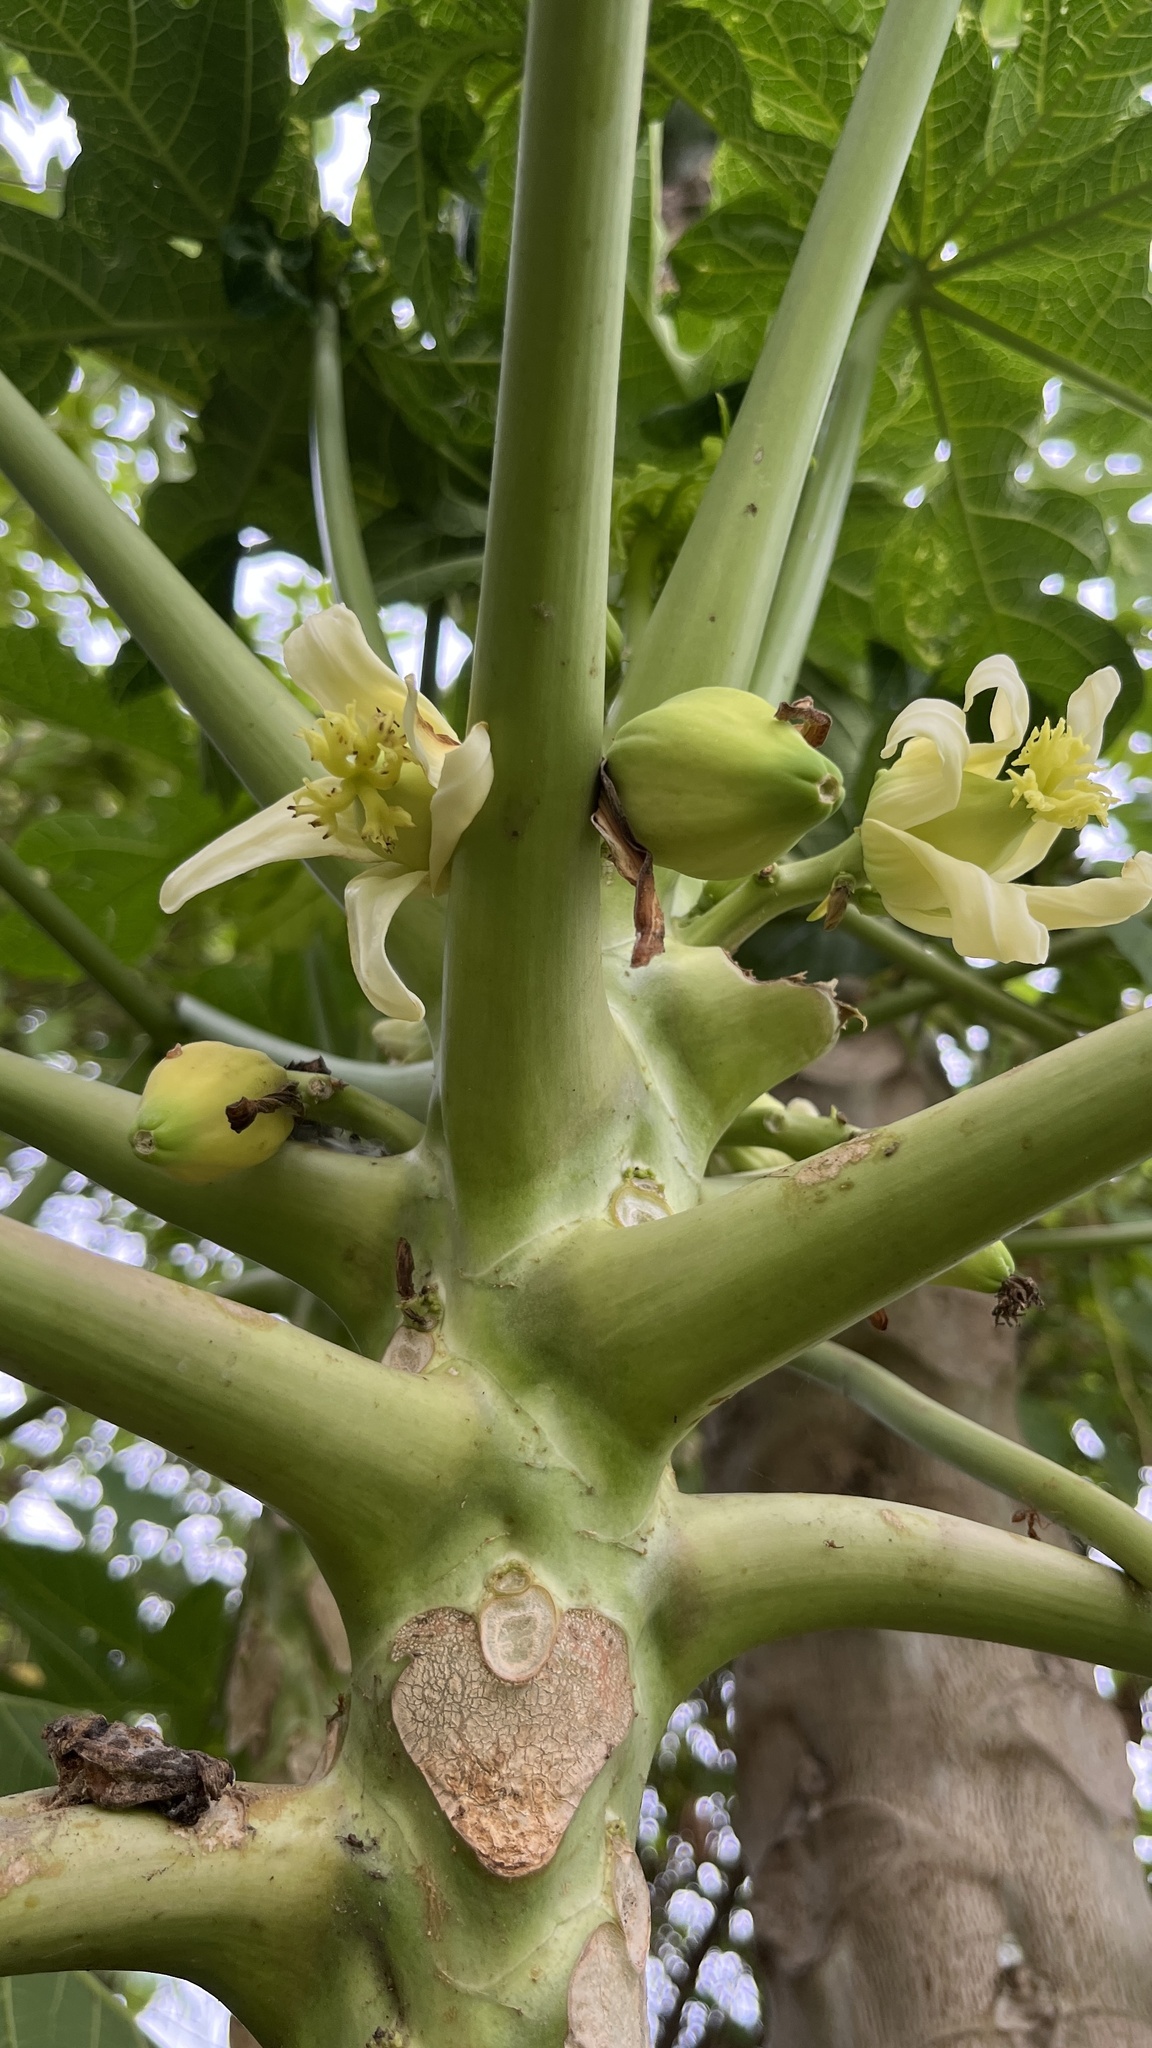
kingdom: Plantae
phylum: Tracheophyta
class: Magnoliopsida
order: Brassicales
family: Caricaceae
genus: Carica
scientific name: Carica papaya
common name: Papaya
